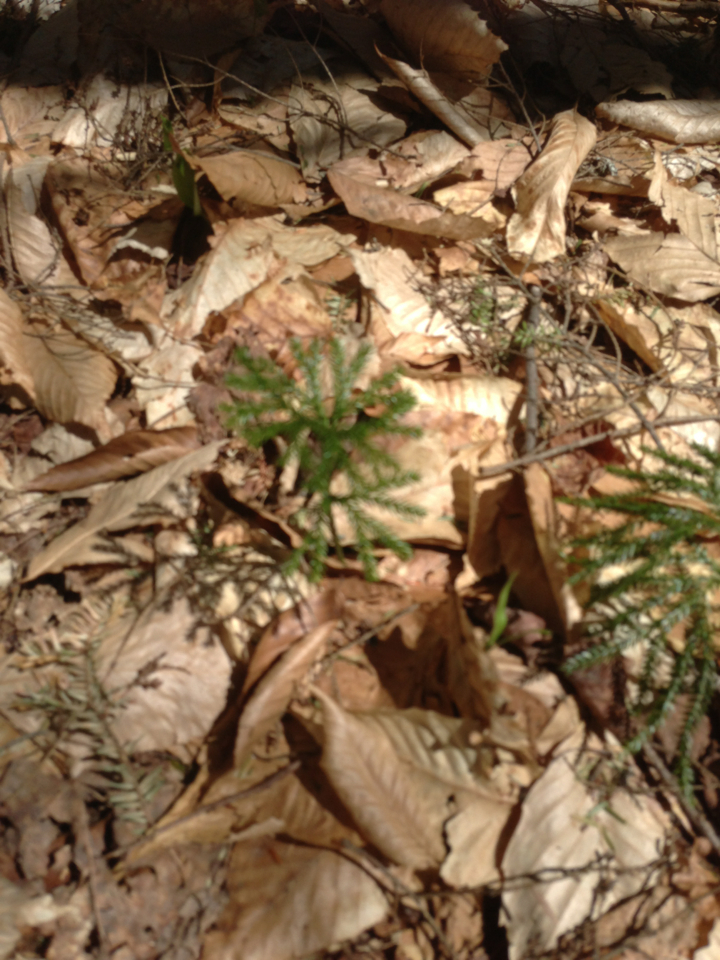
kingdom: Plantae
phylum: Tracheophyta
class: Lycopodiopsida
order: Lycopodiales
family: Lycopodiaceae
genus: Dendrolycopodium
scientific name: Dendrolycopodium
